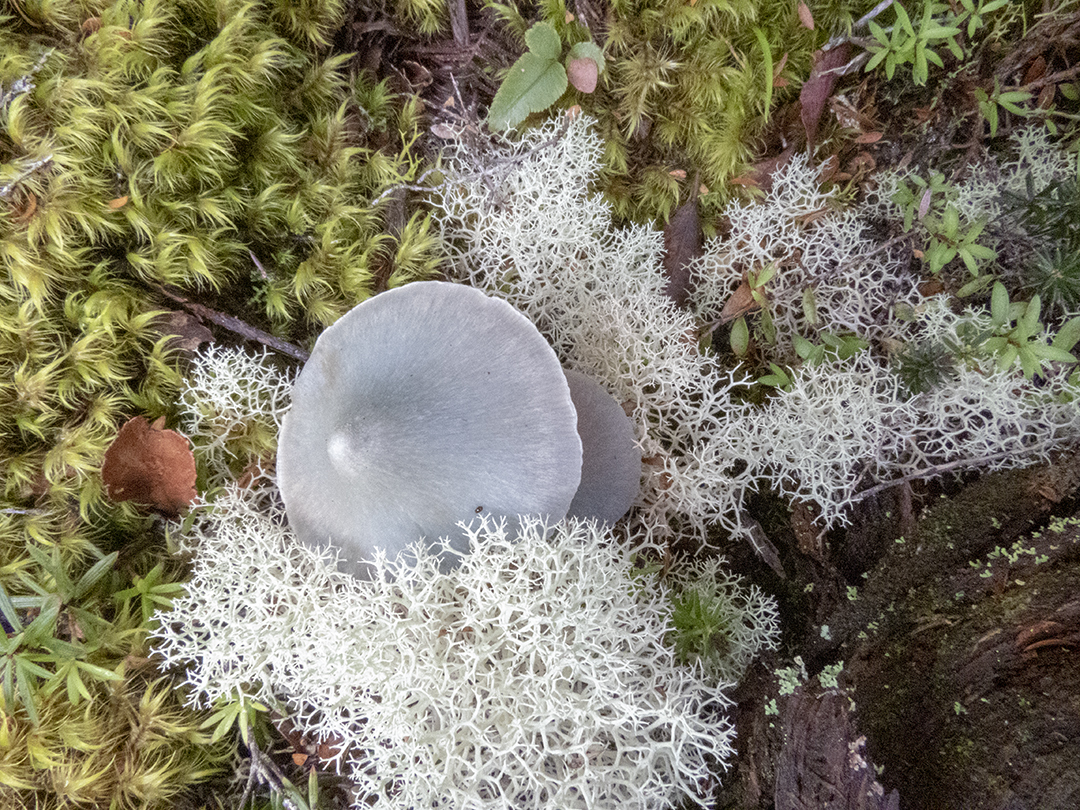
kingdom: Fungi
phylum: Basidiomycota
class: Agaricomycetes
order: Agaricales
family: Entolomataceae
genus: Entoloma
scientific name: Entoloma canoconicum
